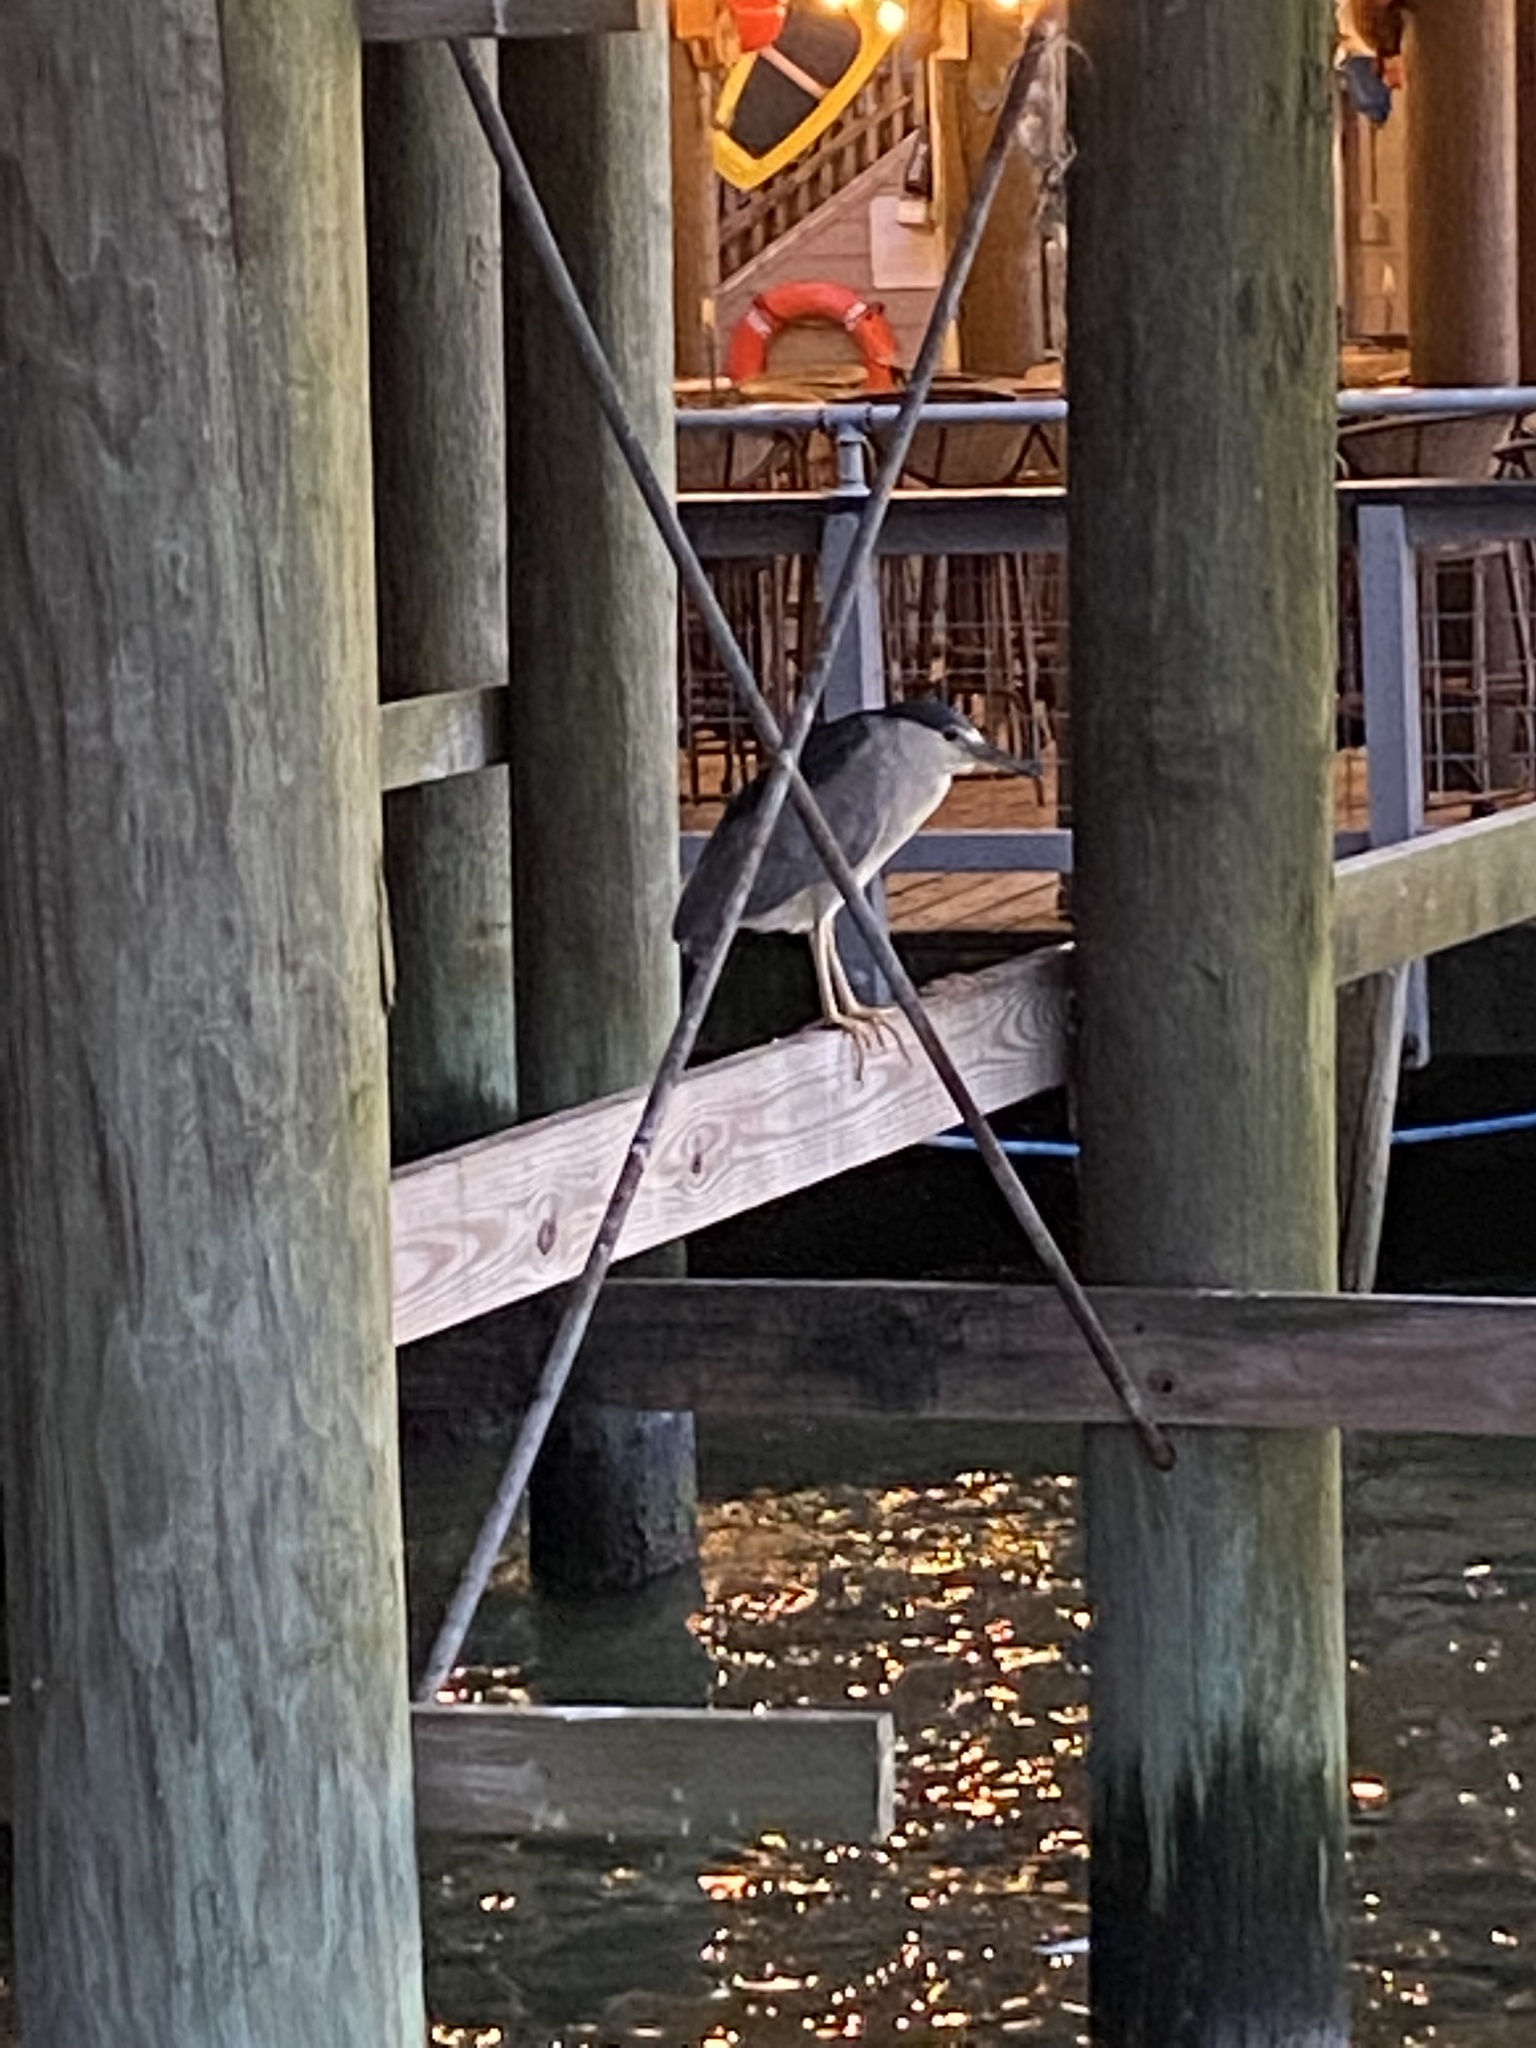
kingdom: Animalia
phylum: Chordata
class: Aves
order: Pelecaniformes
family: Ardeidae
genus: Nycticorax
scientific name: Nycticorax nycticorax
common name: Black-crowned night heron
